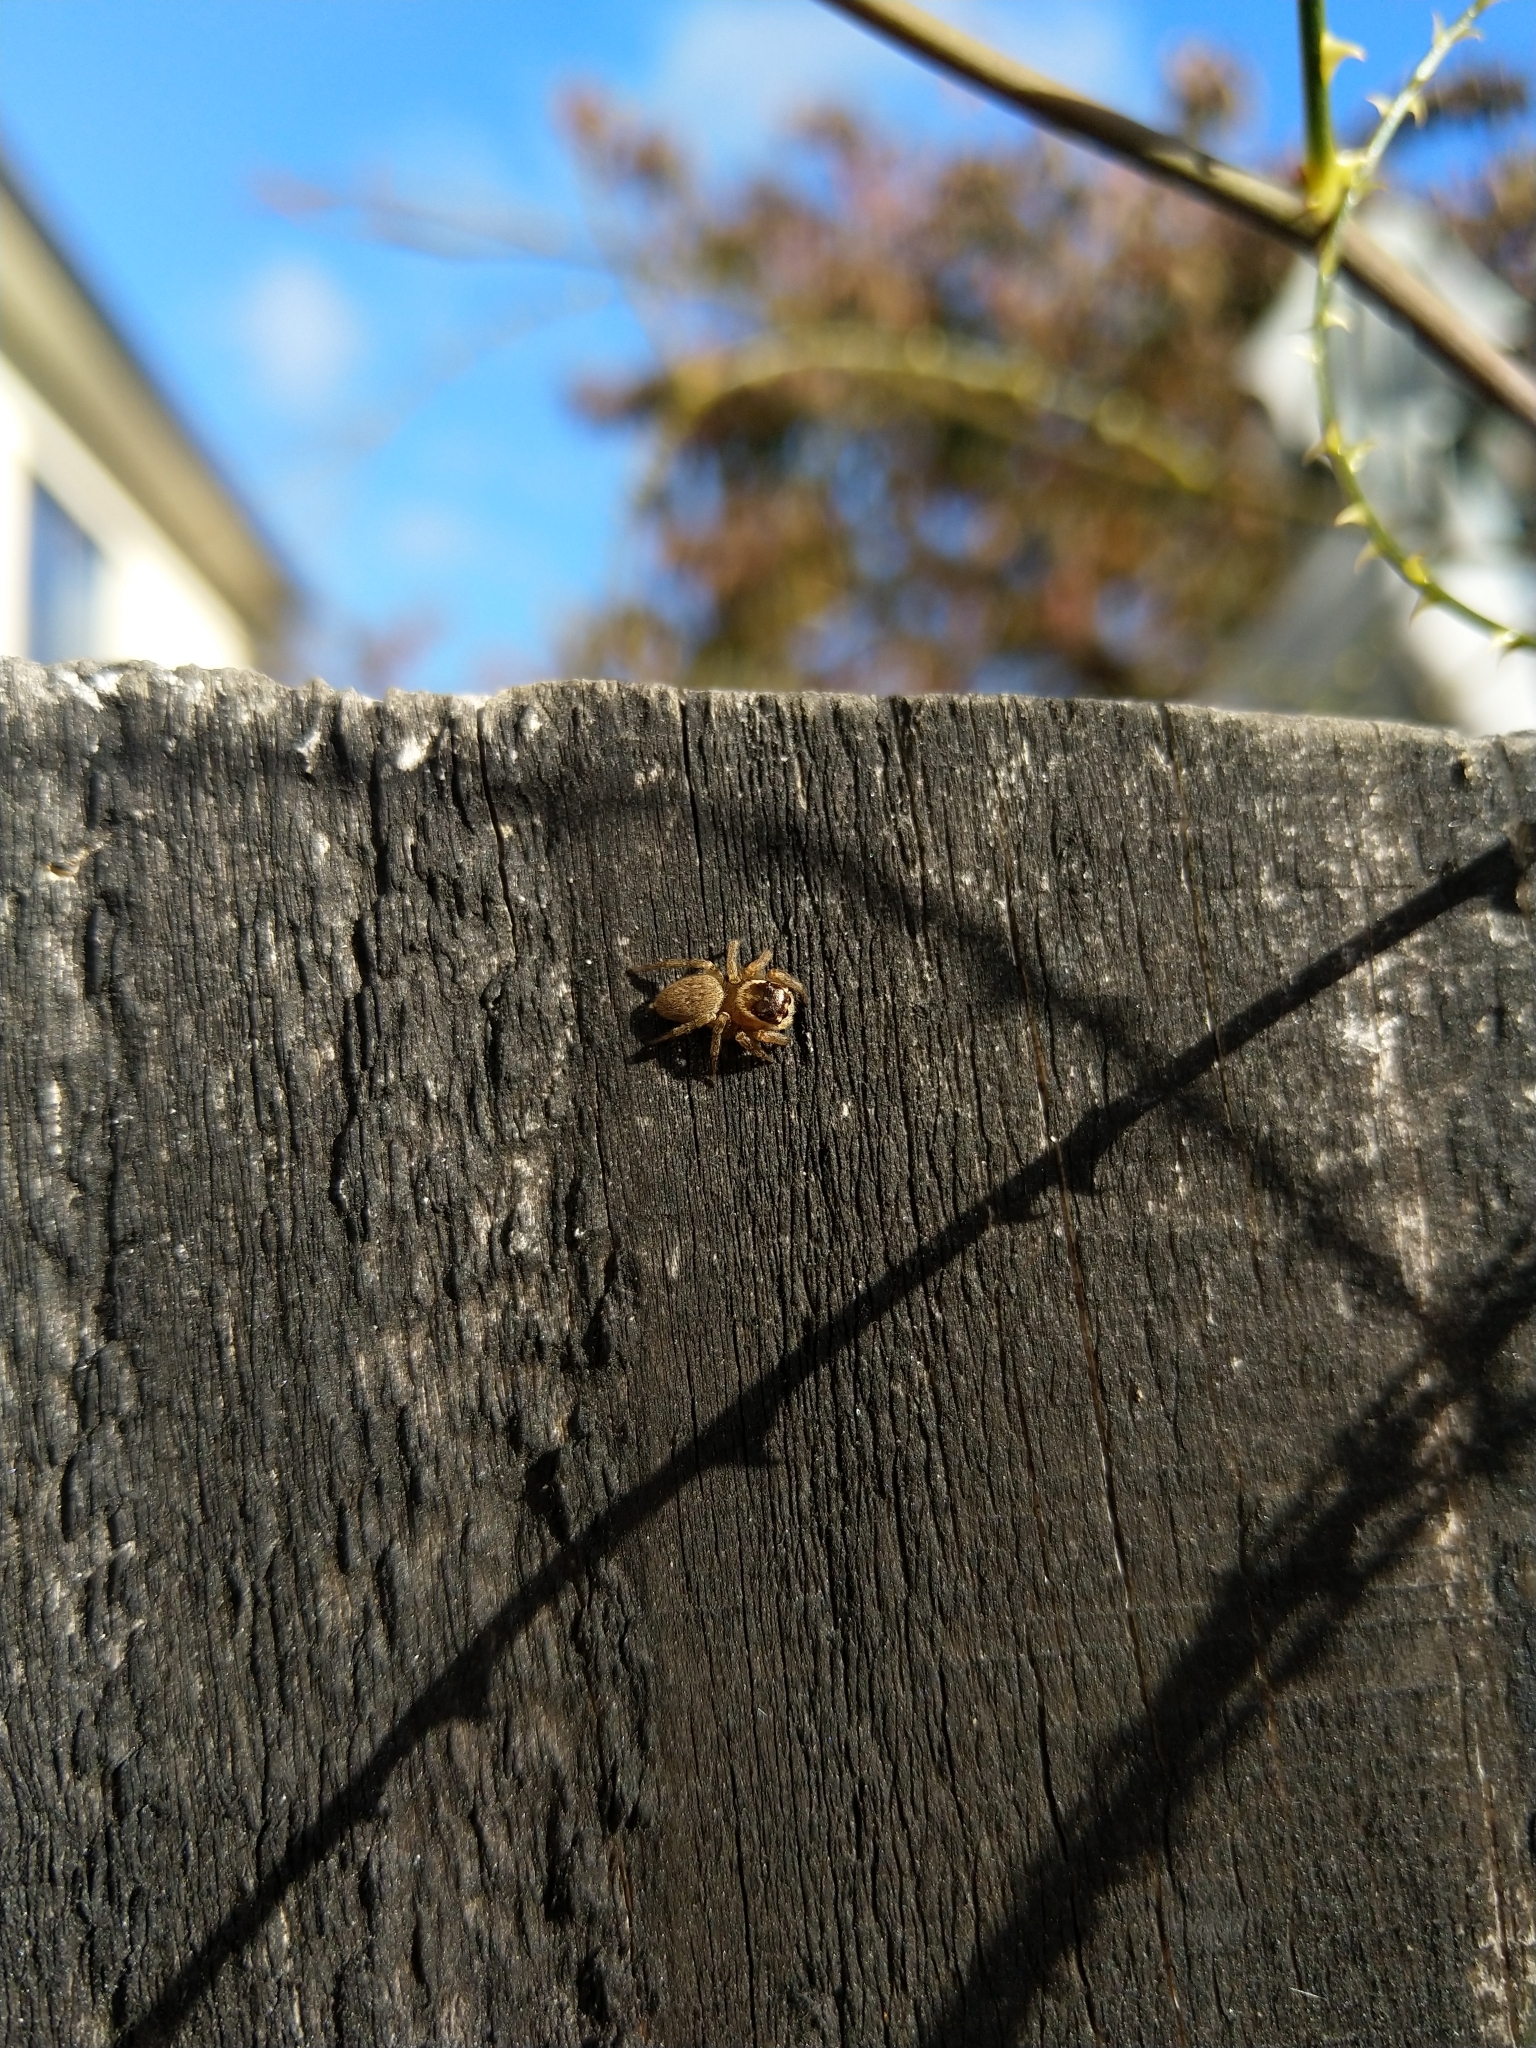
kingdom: Animalia
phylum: Arthropoda
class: Arachnida
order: Araneae
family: Salticidae
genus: Maratus
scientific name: Maratus griseus
